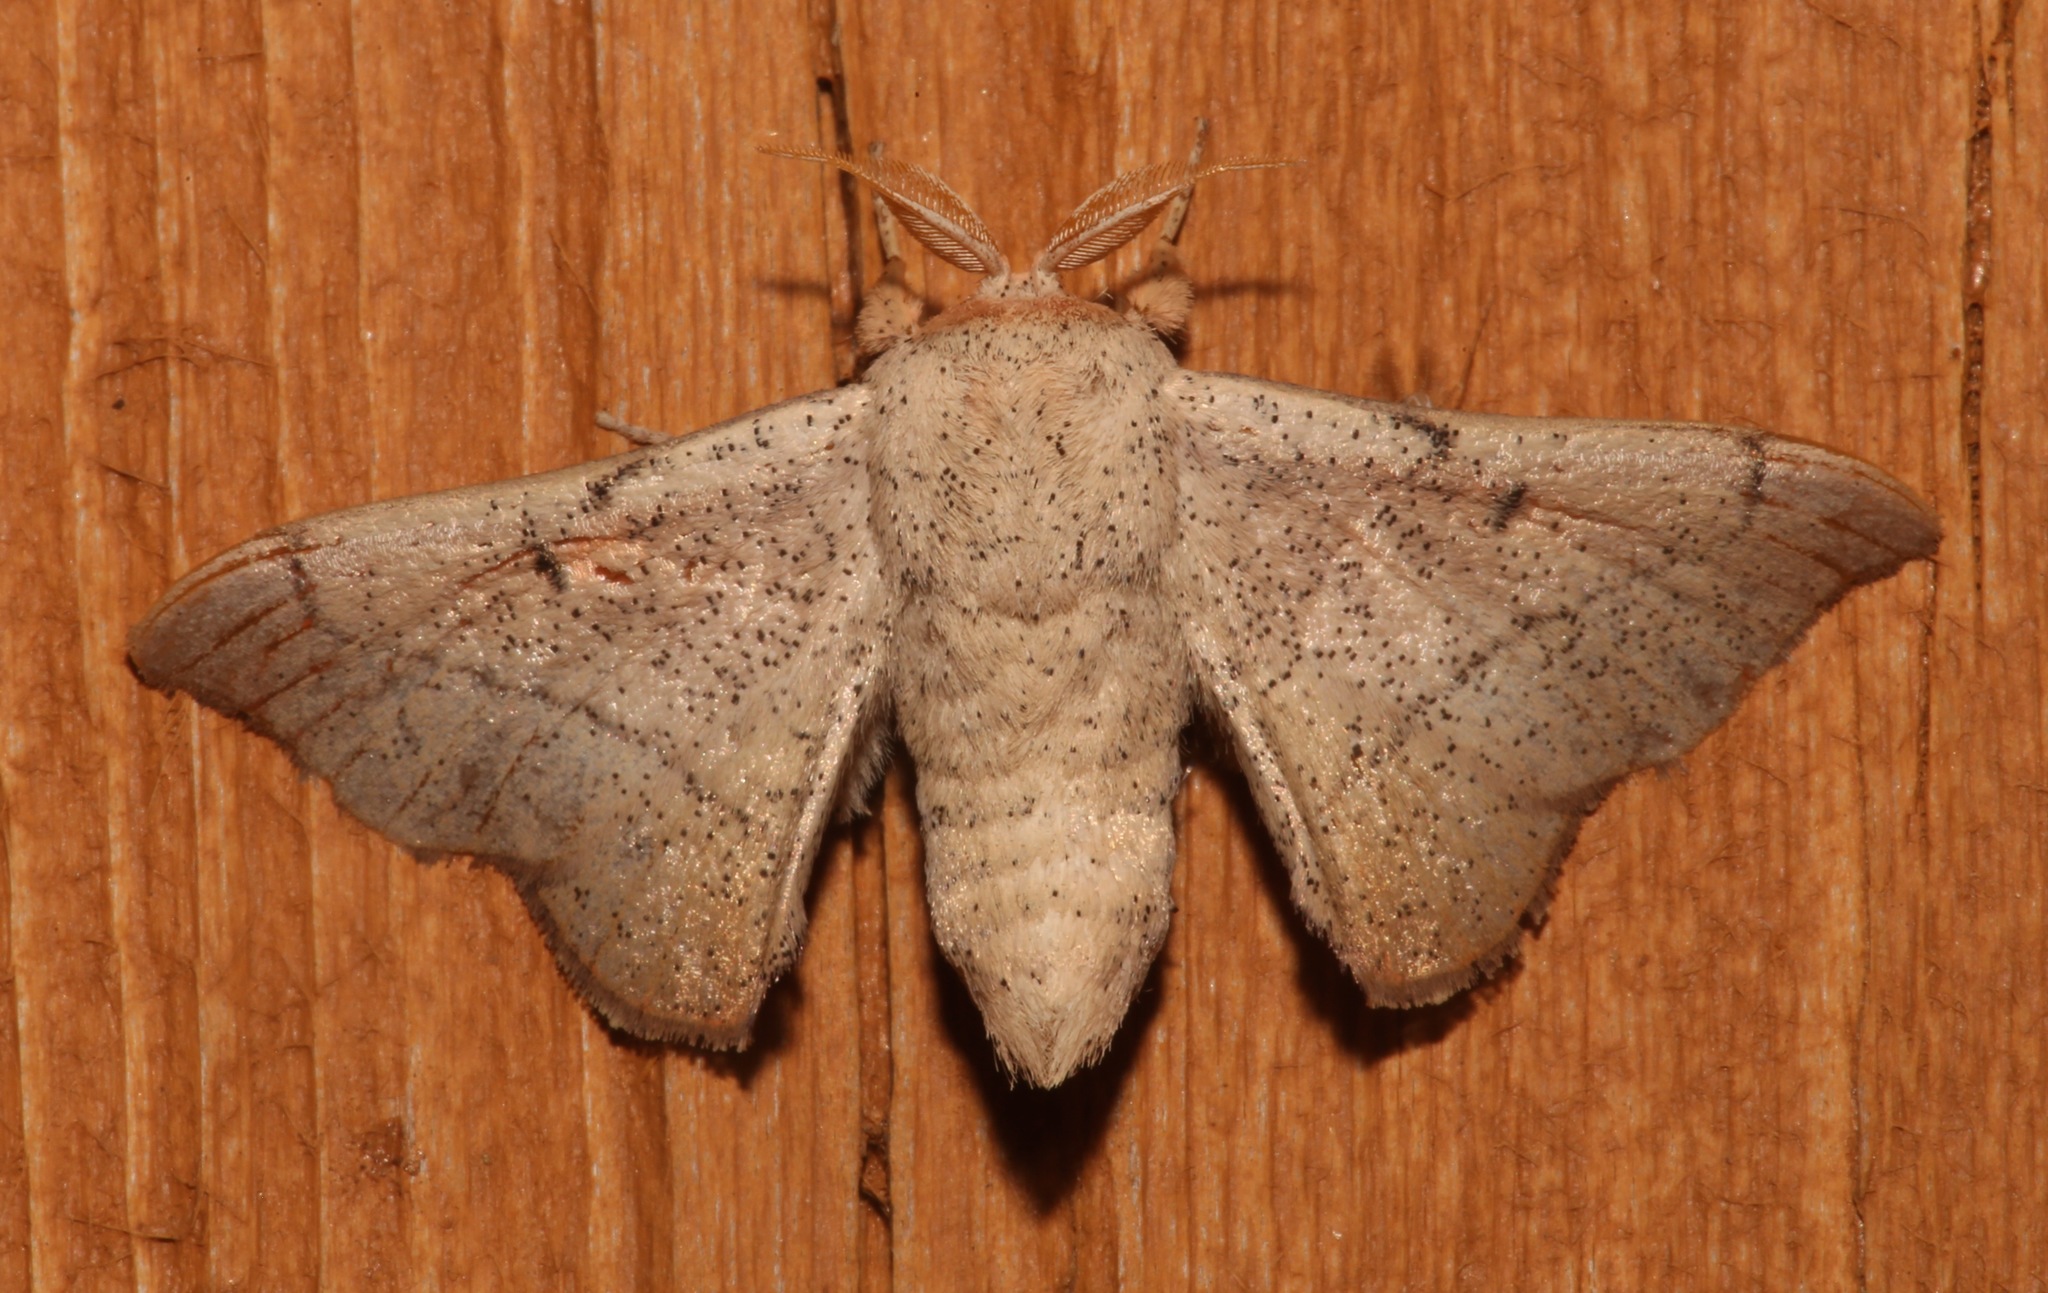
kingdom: Animalia
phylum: Arthropoda
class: Insecta
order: Lepidoptera
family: Mimallonidae
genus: Cicinnus
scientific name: Cicinnus melsheimeri
